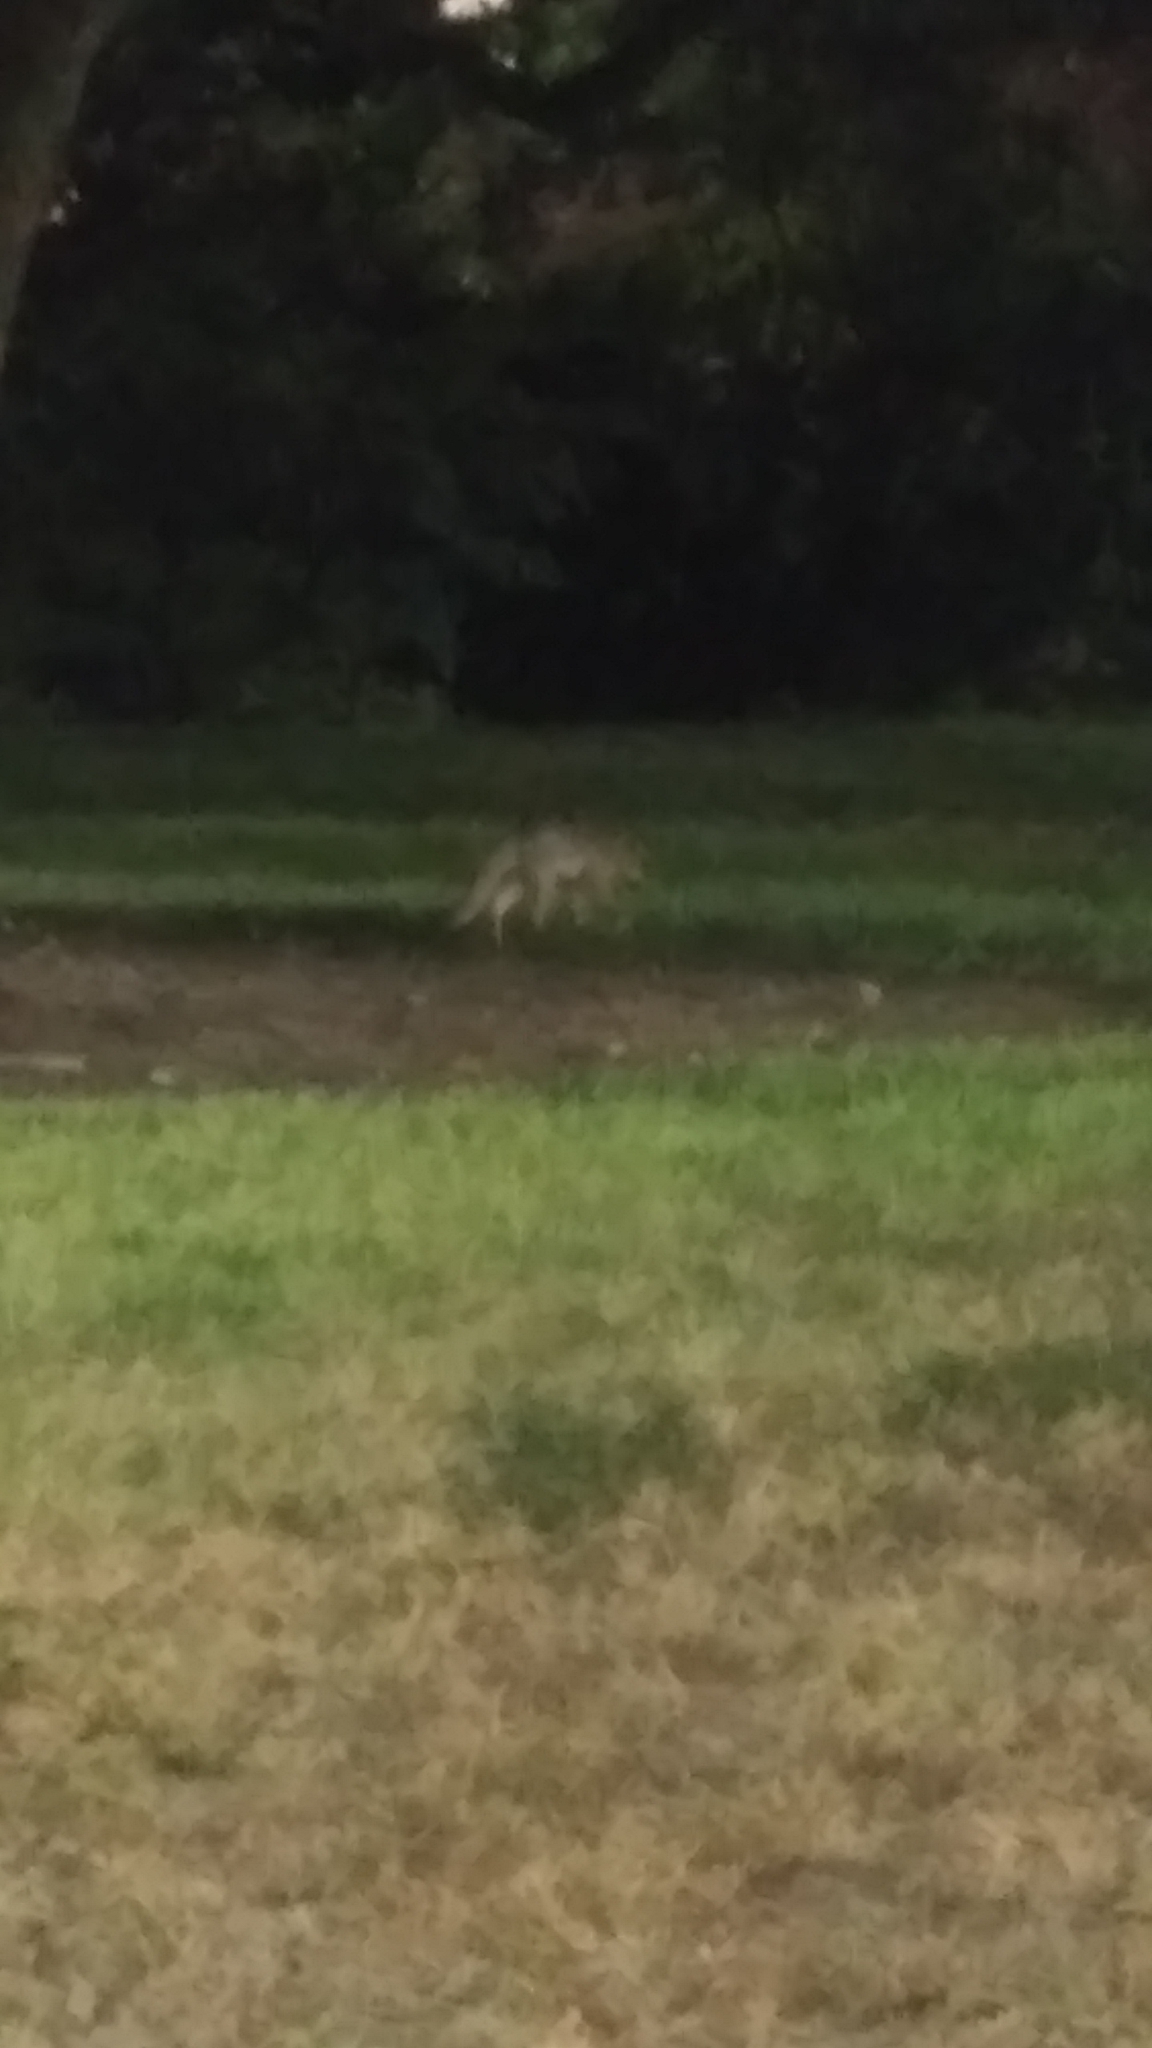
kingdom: Animalia
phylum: Chordata
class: Mammalia
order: Carnivora
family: Canidae
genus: Urocyon
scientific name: Urocyon cinereoargenteus
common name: Gray fox
